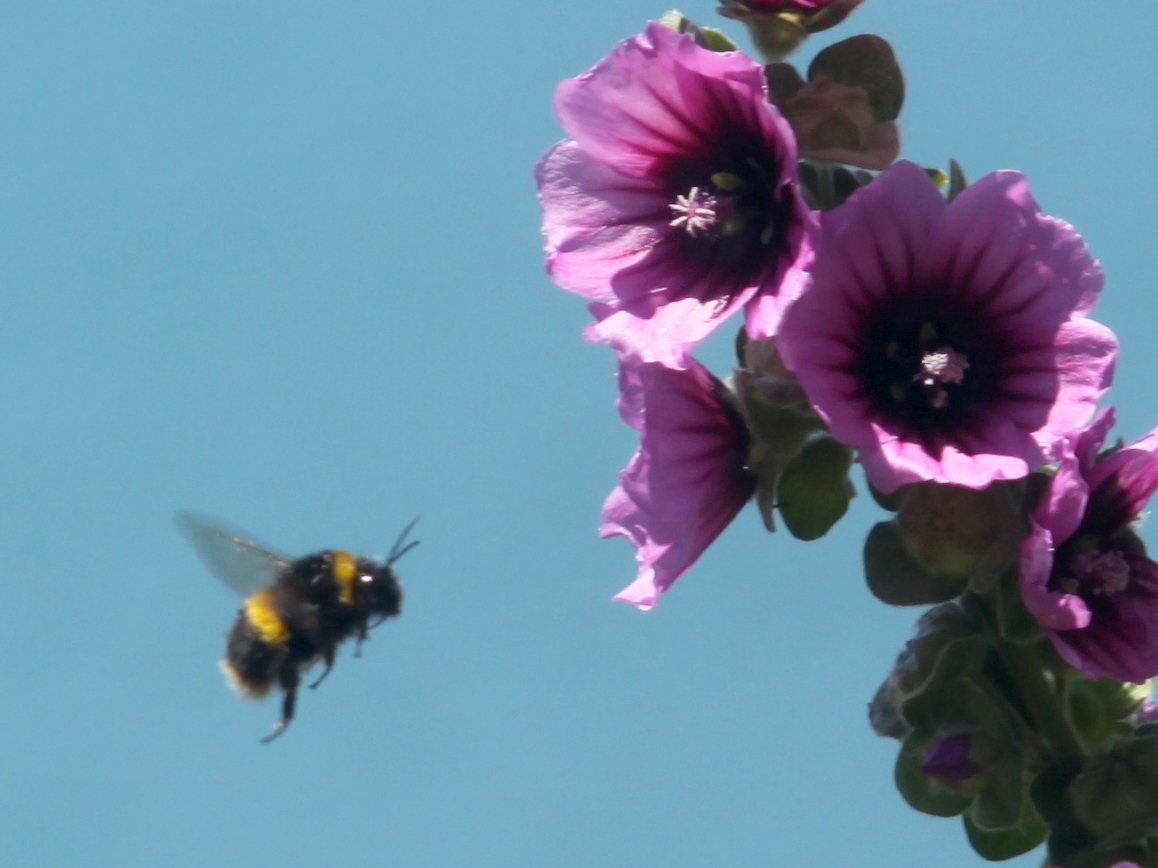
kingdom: Animalia
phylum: Arthropoda
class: Insecta
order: Hymenoptera
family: Apidae
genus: Bombus
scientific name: Bombus terrestris
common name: Buff-tailed bumblebee
